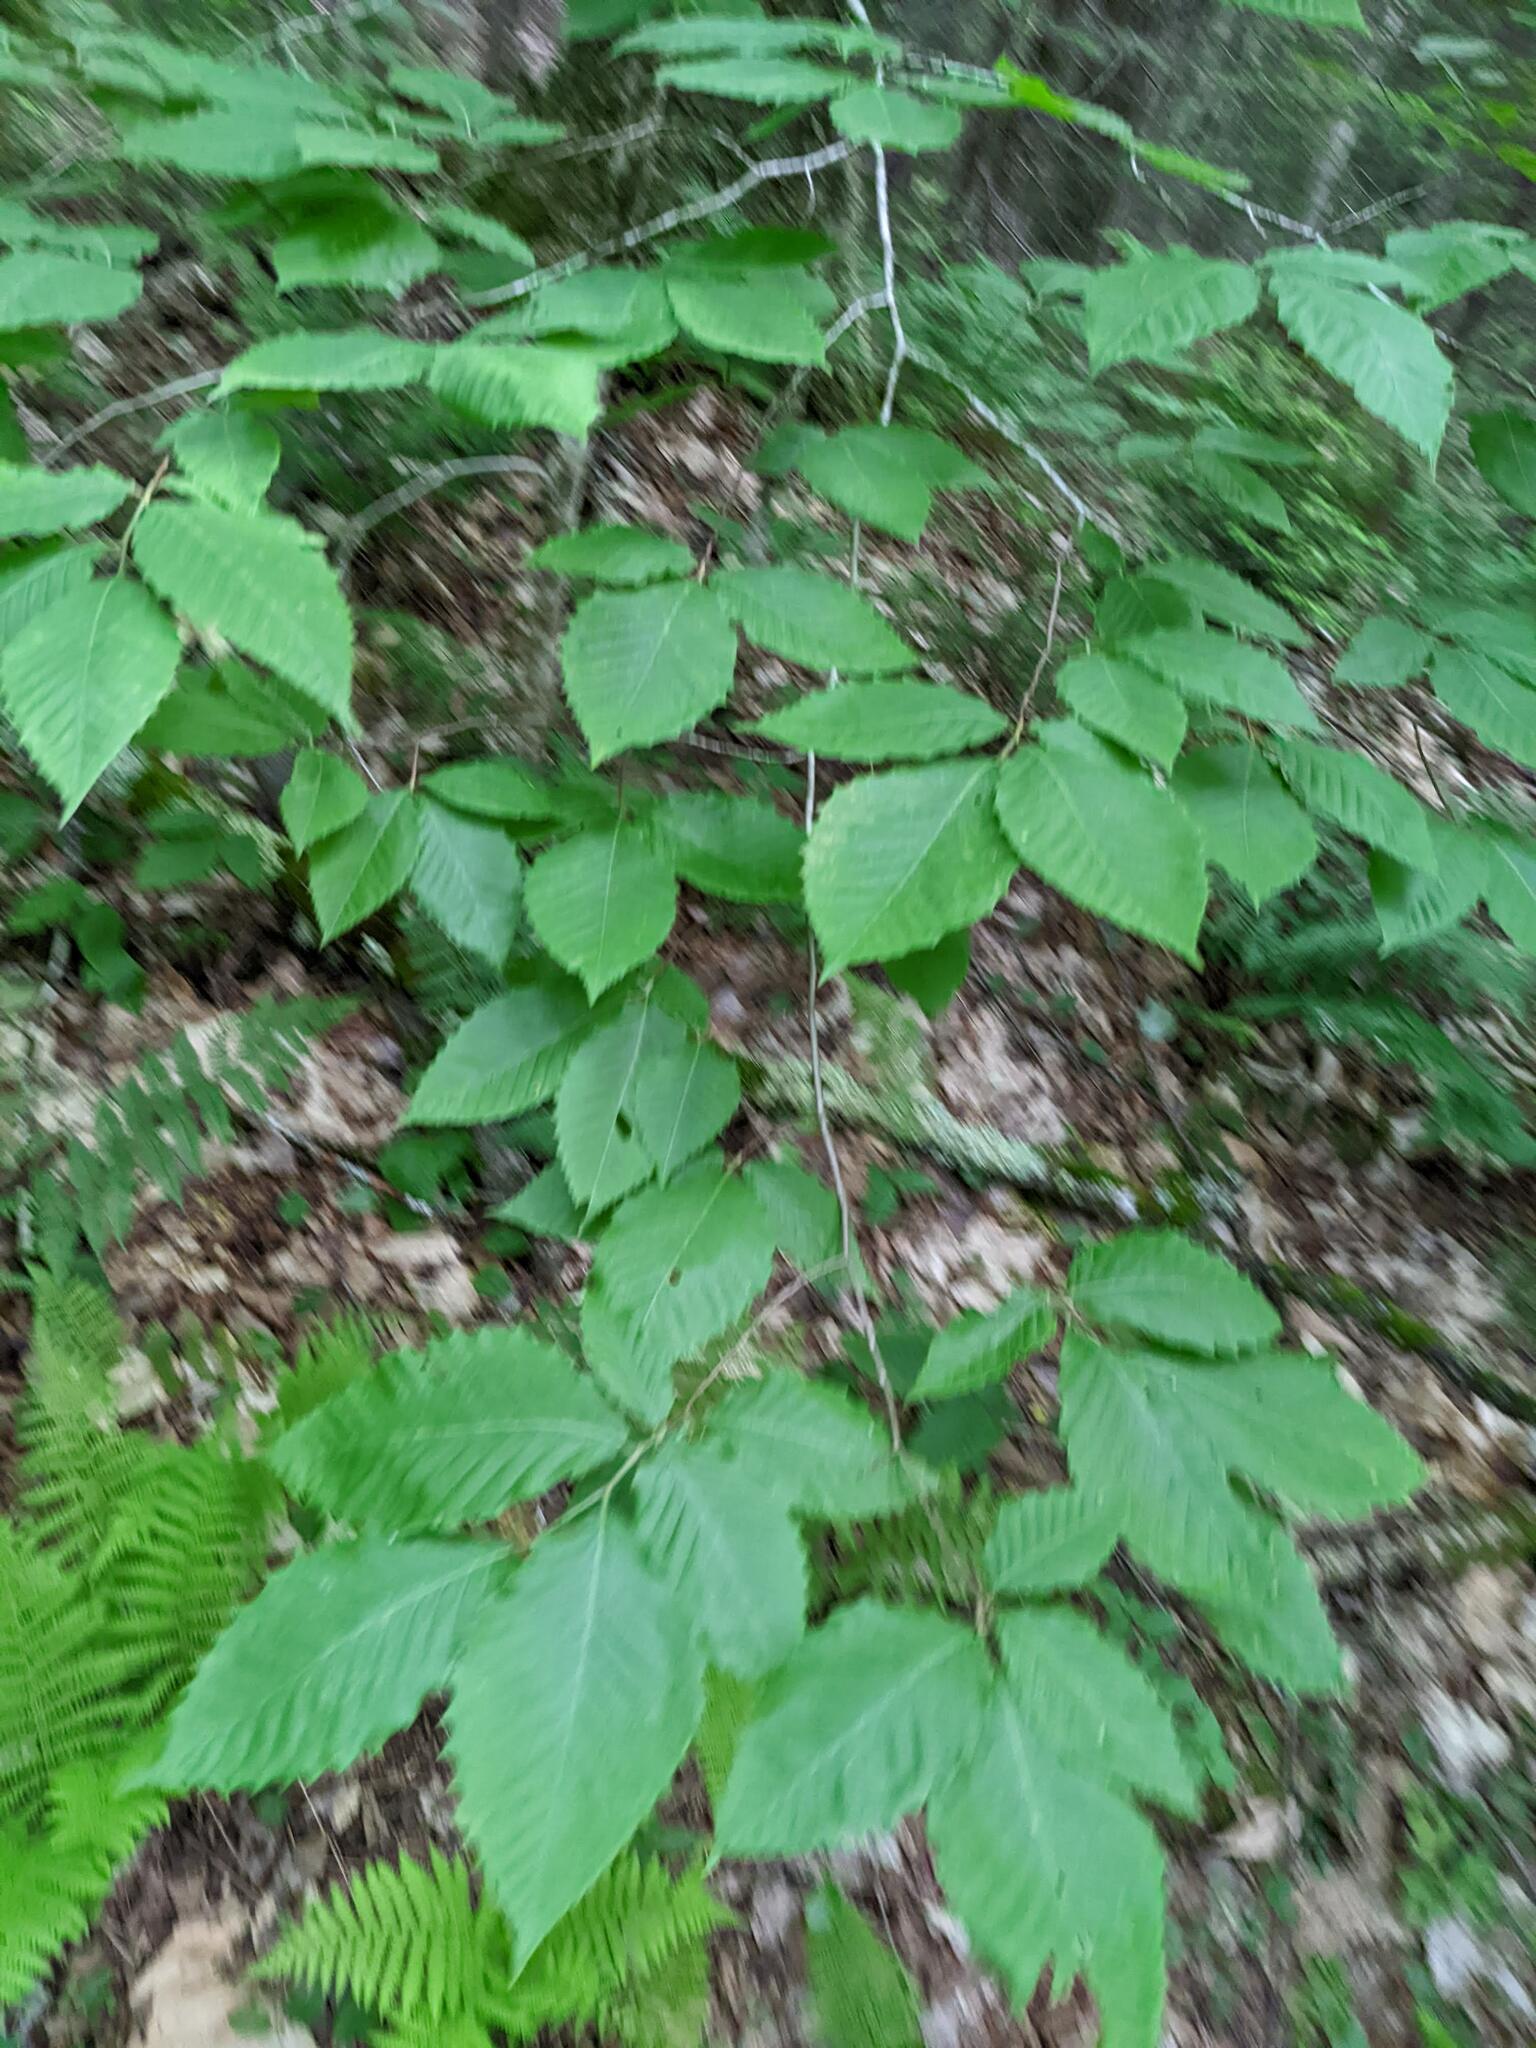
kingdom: Plantae
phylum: Tracheophyta
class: Magnoliopsida
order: Fagales
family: Fagaceae
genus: Fagus
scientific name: Fagus grandifolia
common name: American beech
